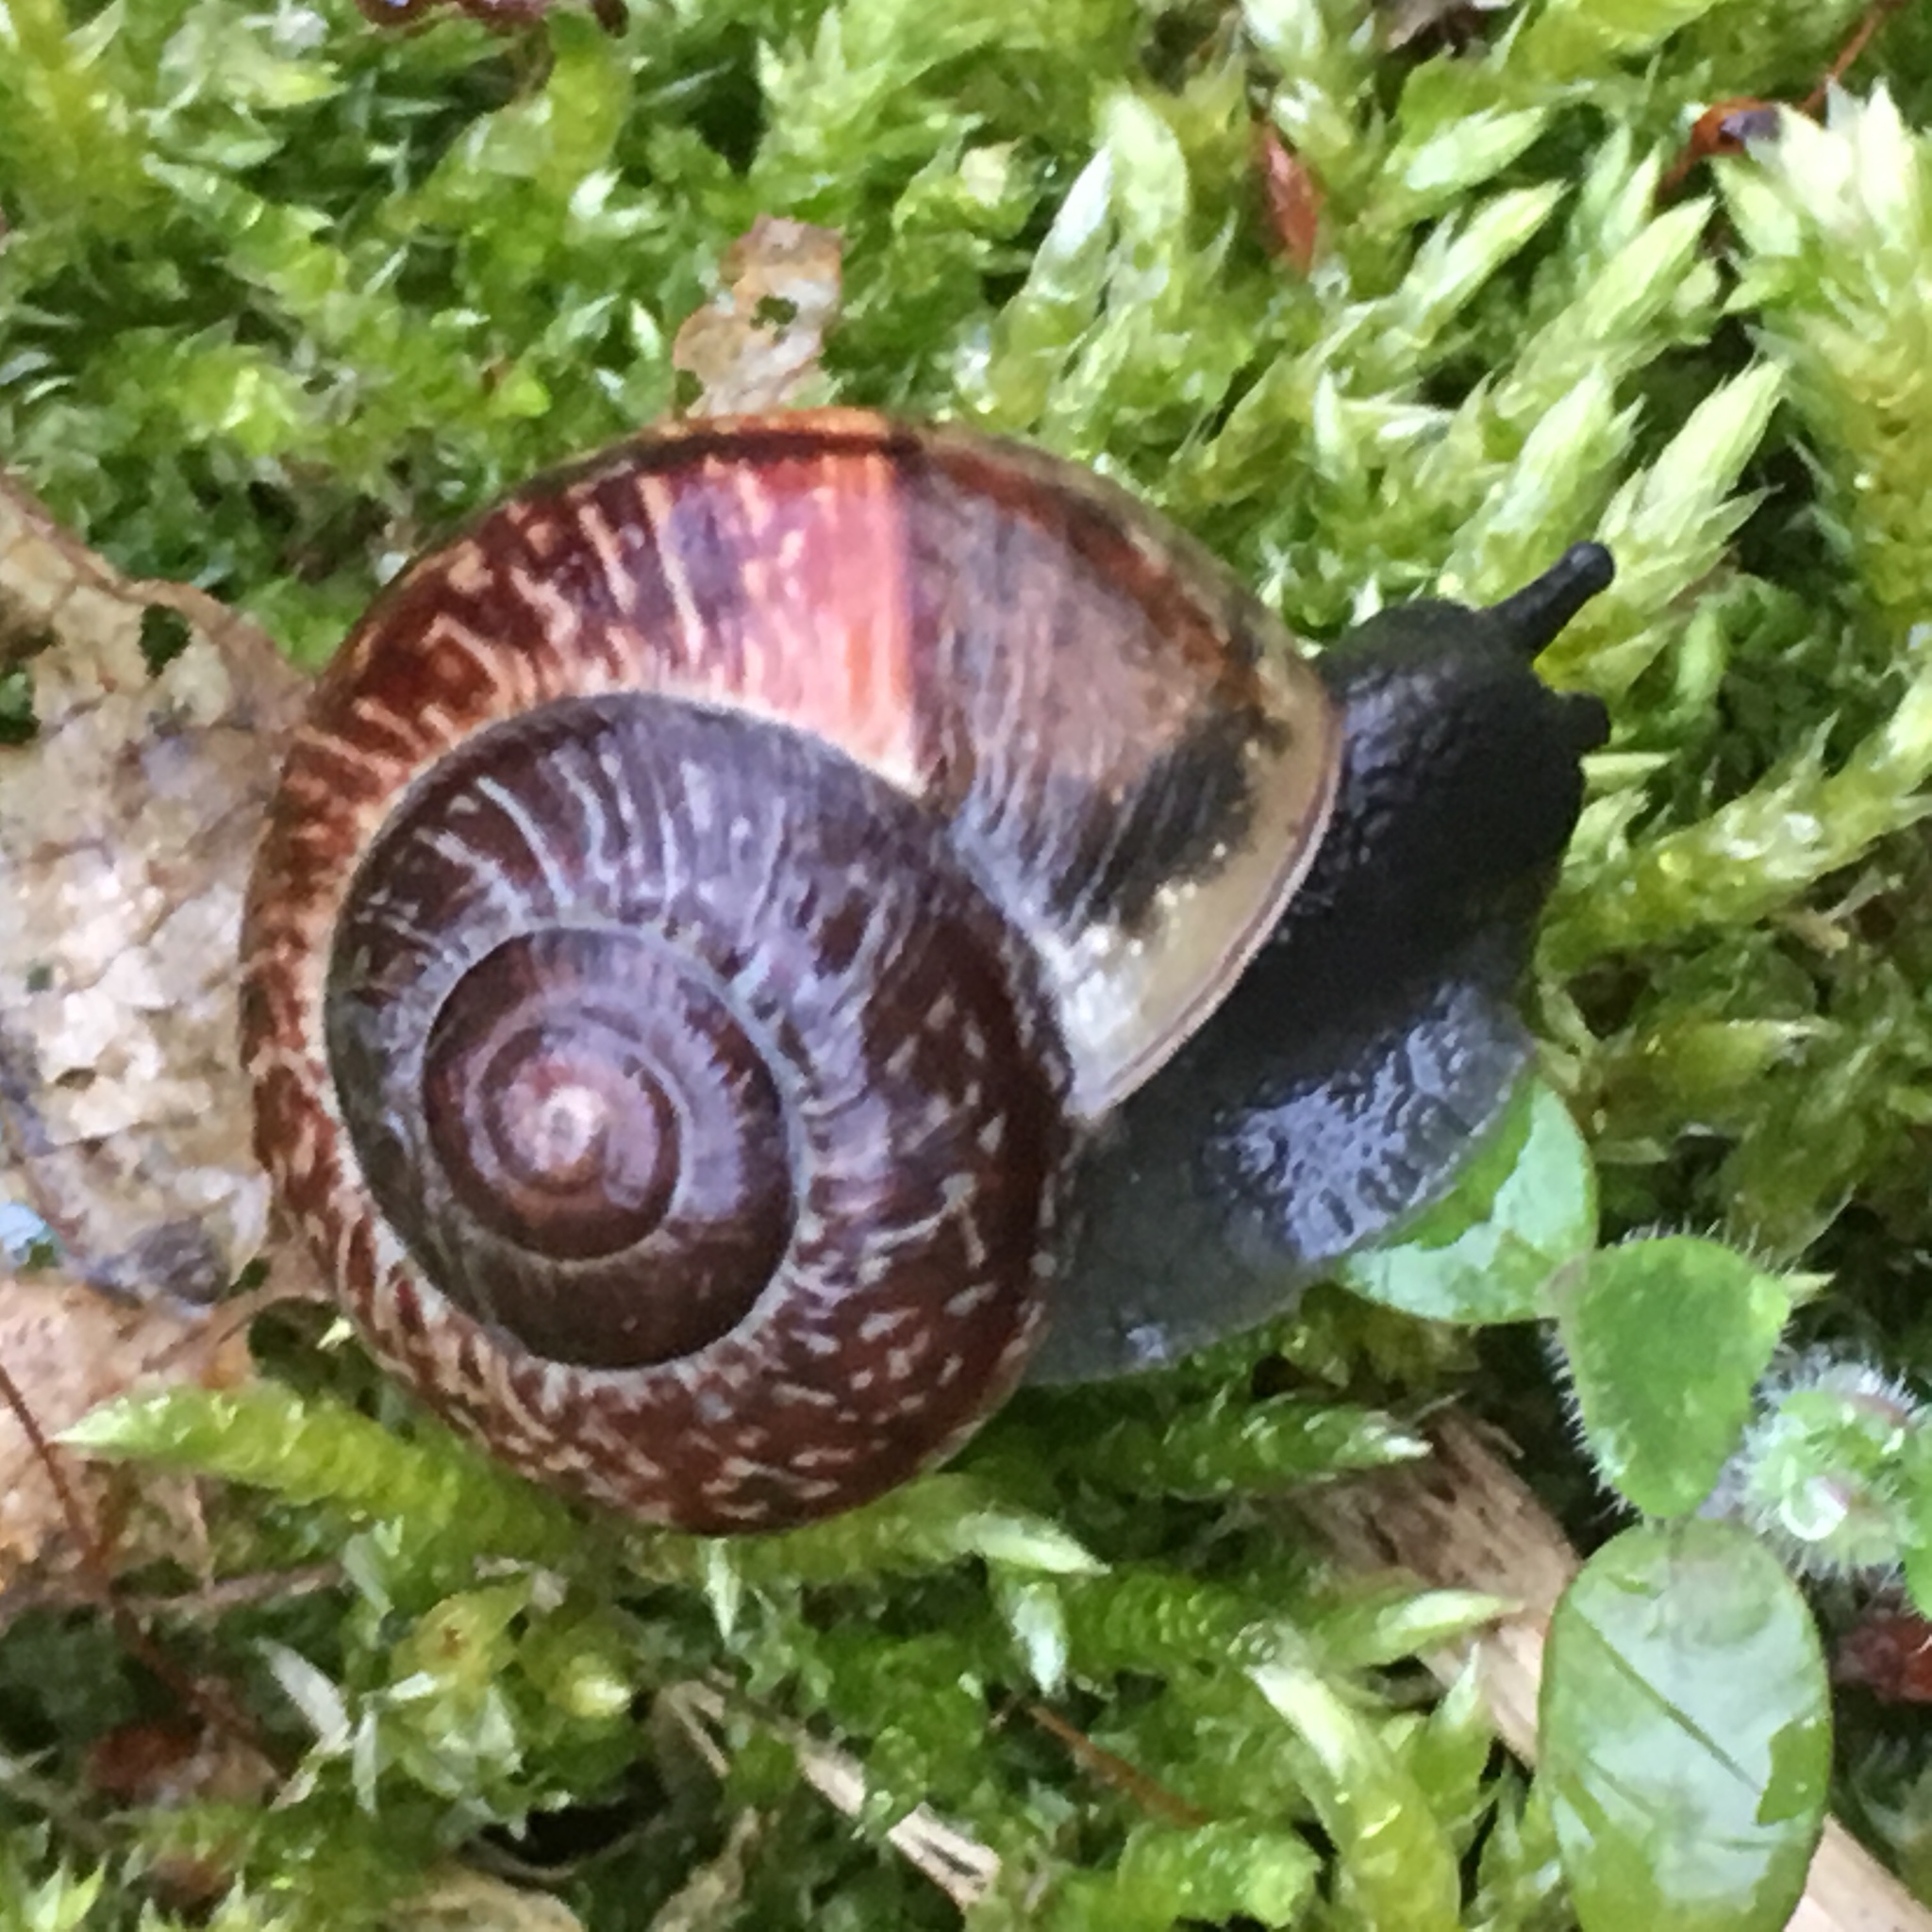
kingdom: Animalia
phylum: Mollusca
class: Gastropoda
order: Stylommatophora
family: Helicidae
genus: Arianta
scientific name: Arianta arbustorum
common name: Copse snail
